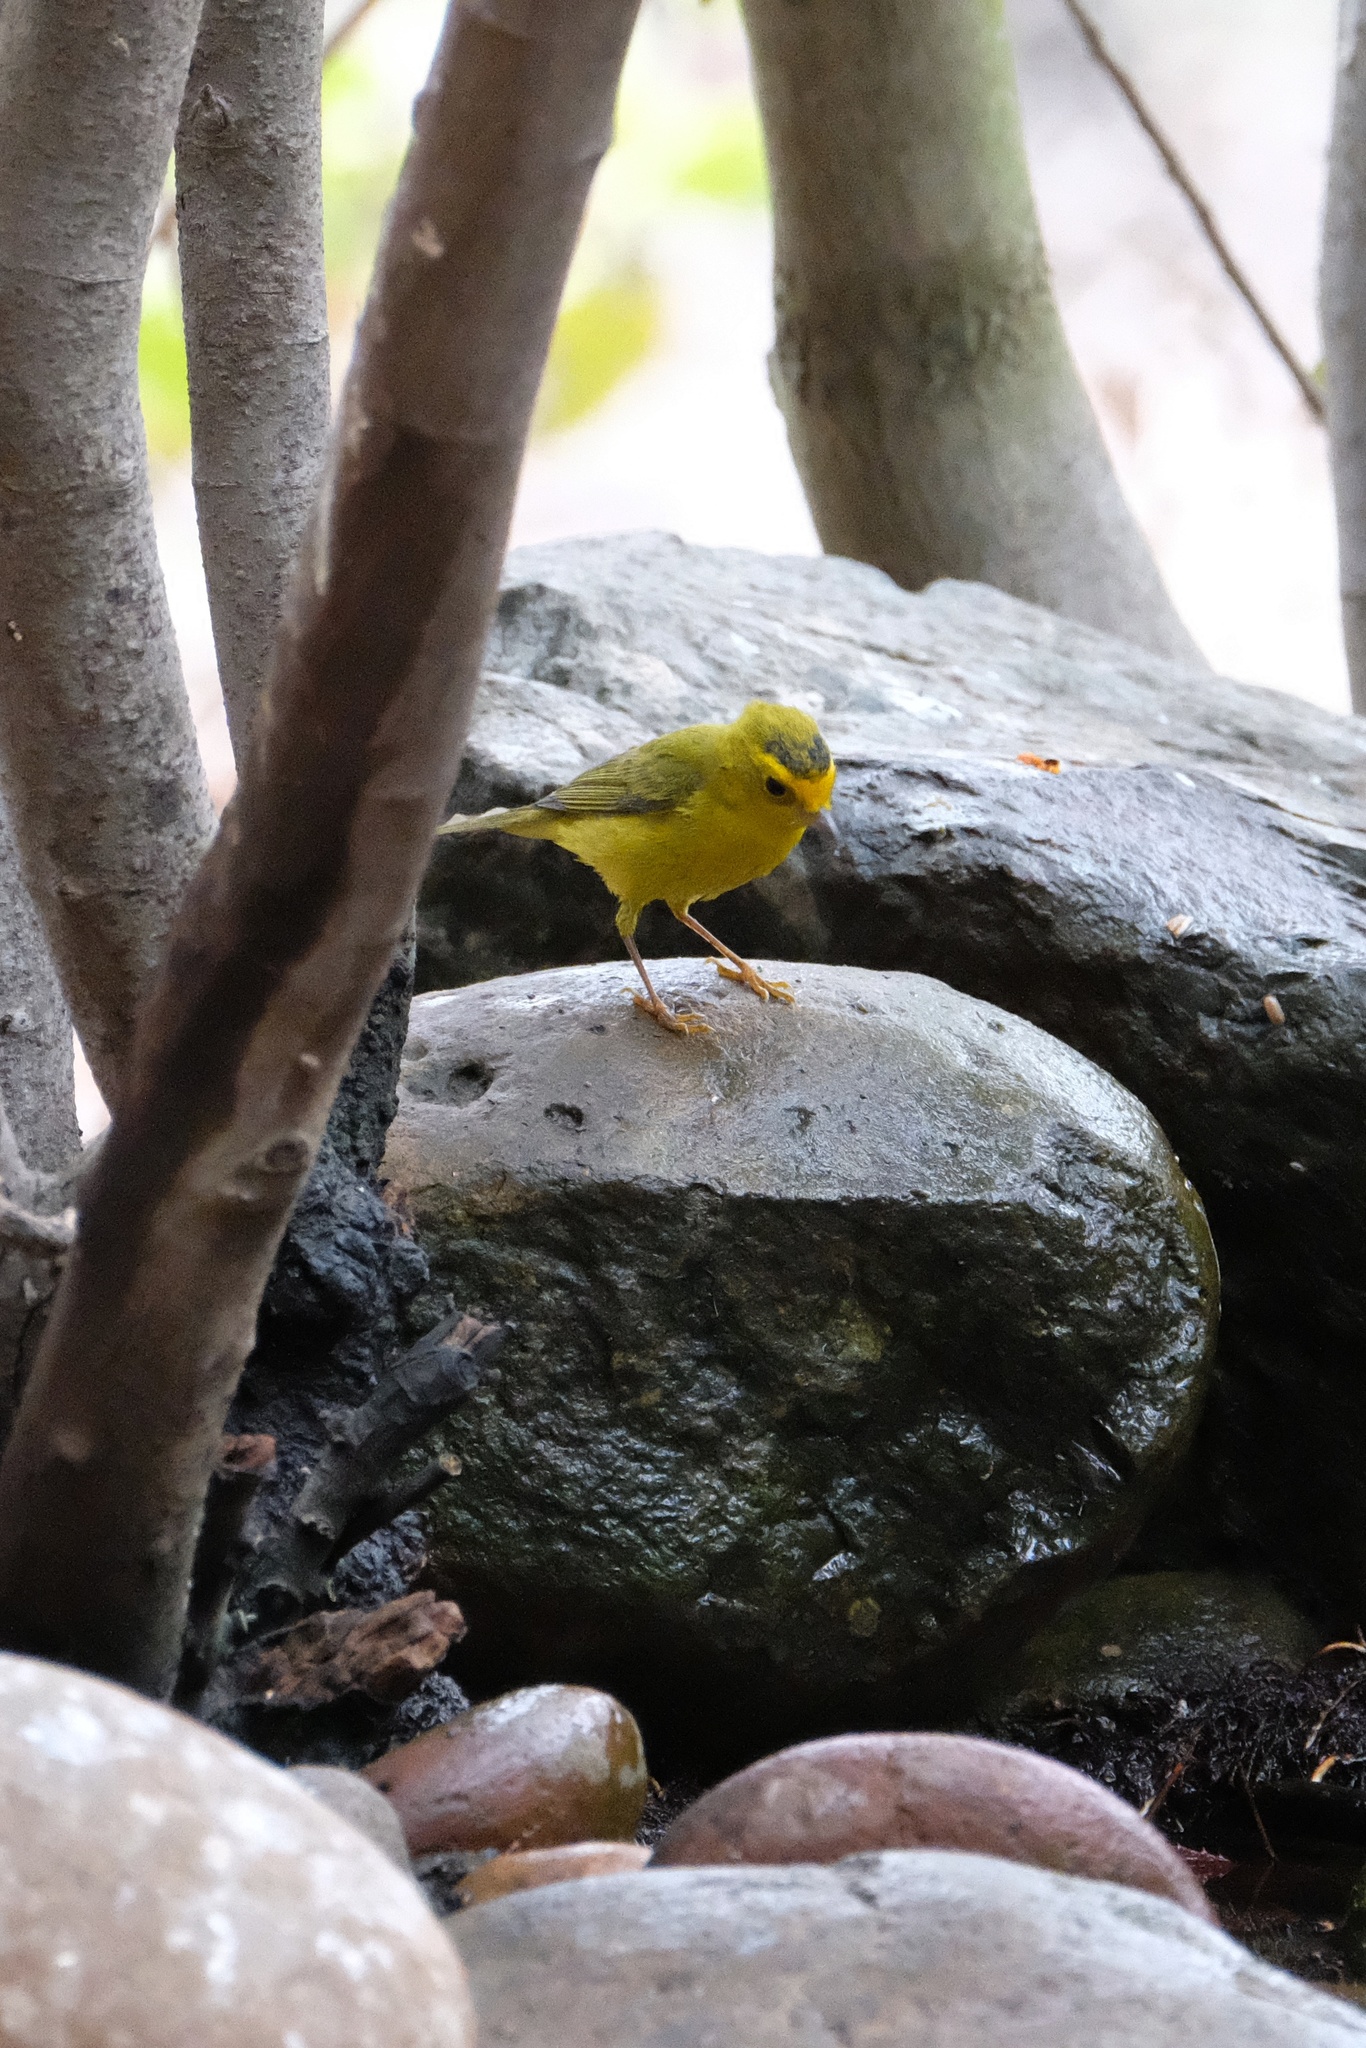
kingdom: Animalia
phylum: Chordata
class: Aves
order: Passeriformes
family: Parulidae
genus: Cardellina
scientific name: Cardellina pusilla
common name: Wilson's warbler
